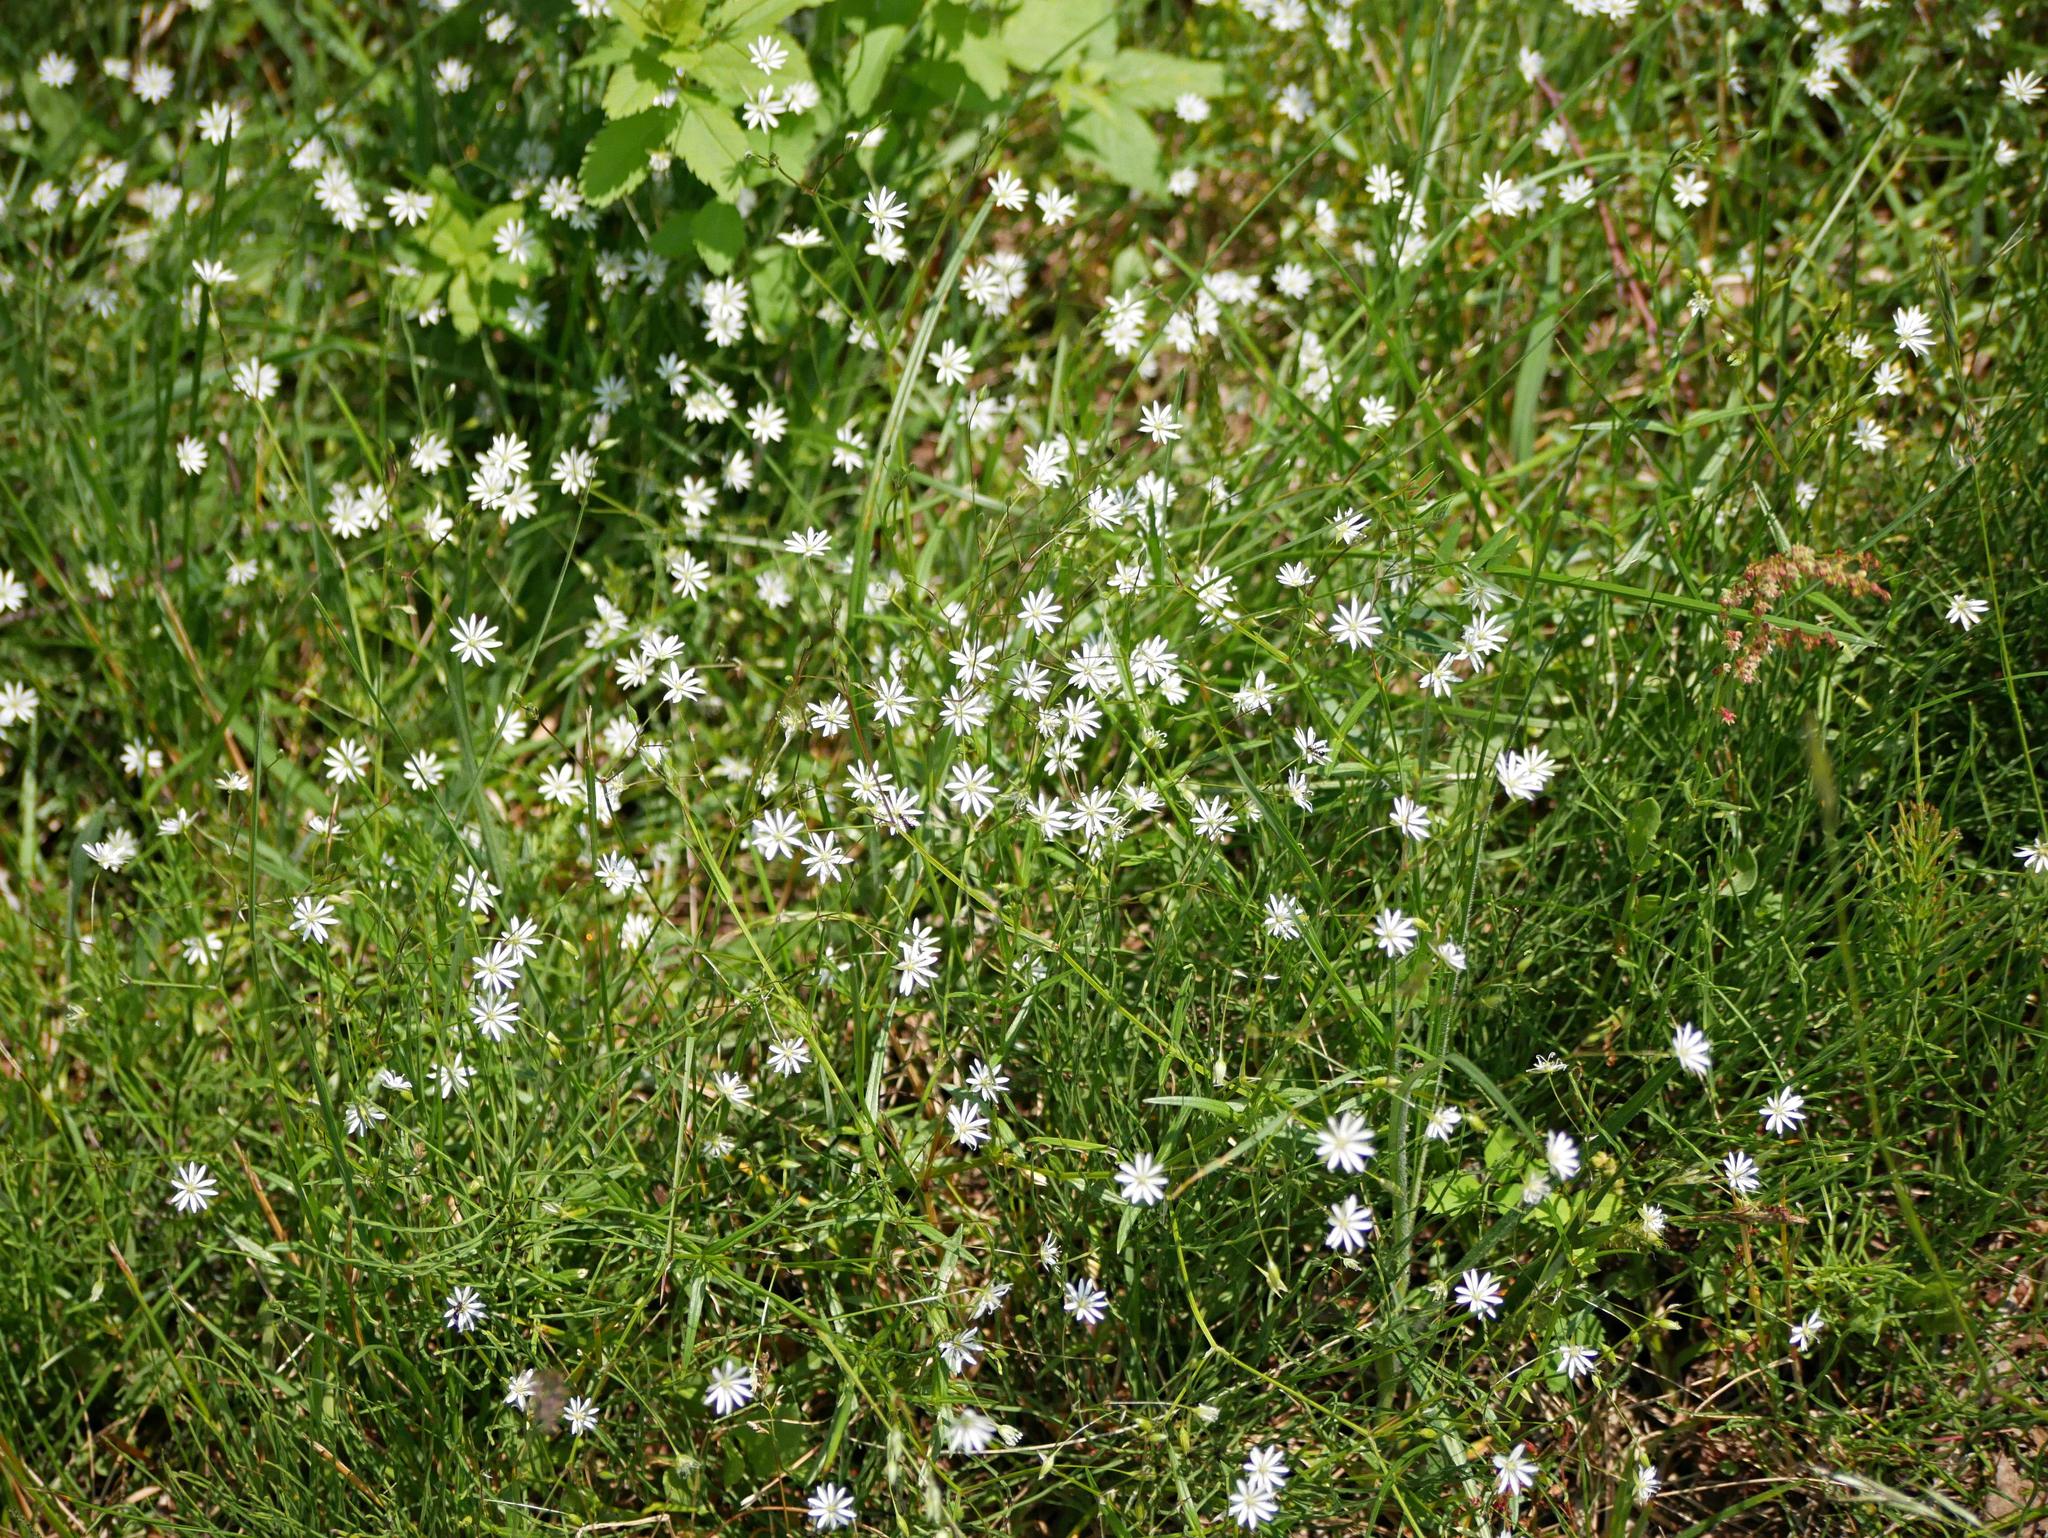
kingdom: Plantae
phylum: Tracheophyta
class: Magnoliopsida
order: Caryophyllales
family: Caryophyllaceae
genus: Stellaria
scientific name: Stellaria graminea
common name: Grass-like starwort
